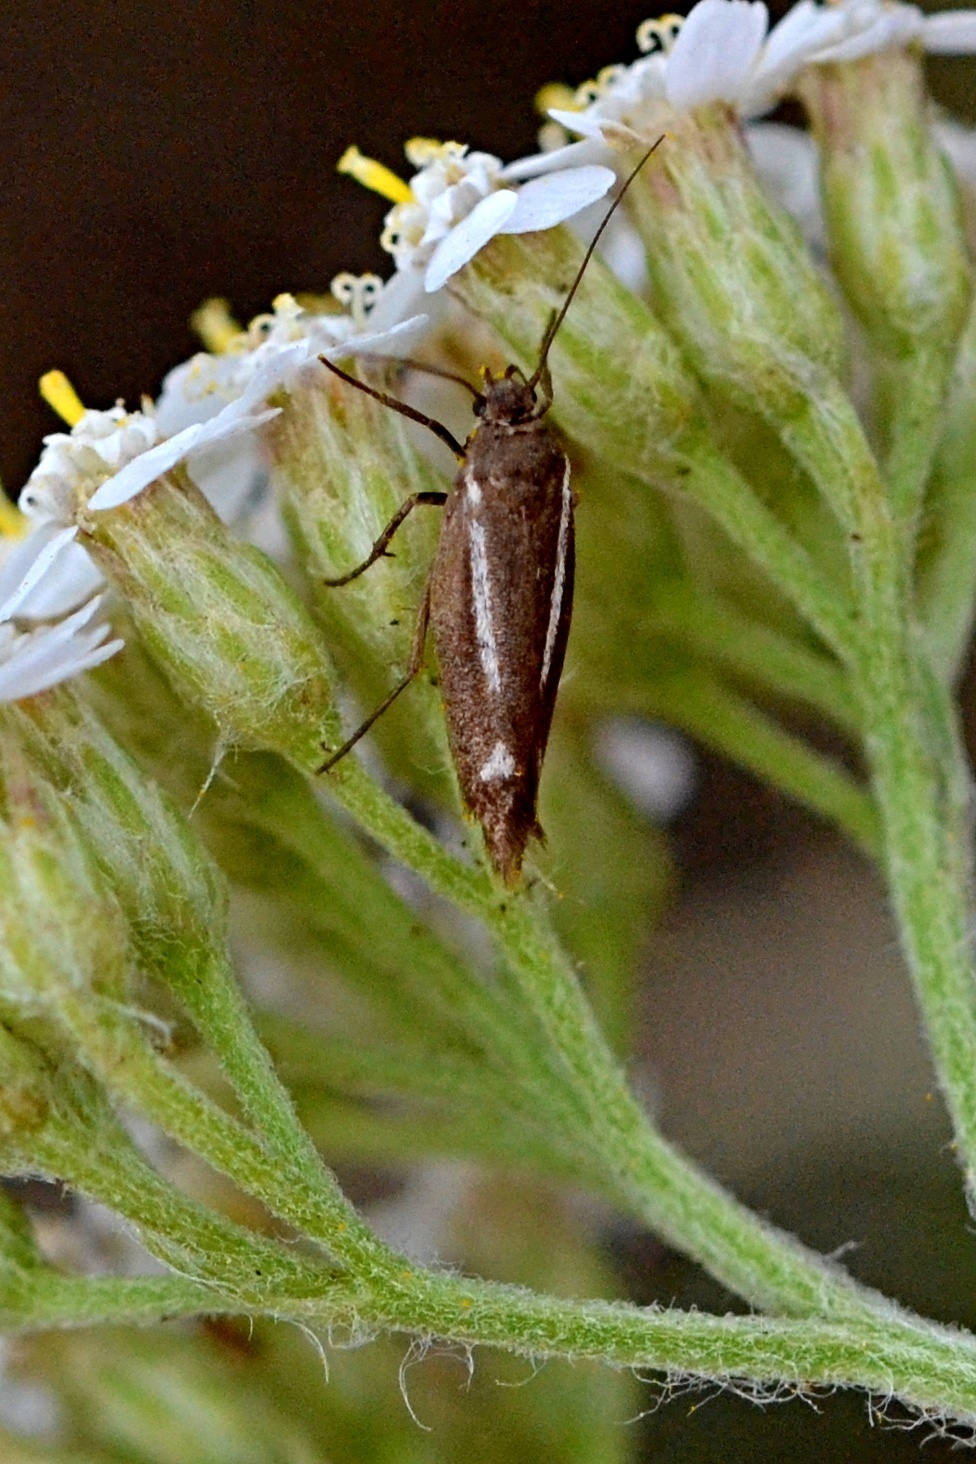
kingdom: Animalia
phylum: Arthropoda
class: Insecta
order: Lepidoptera
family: Scythrididae
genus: Scythris
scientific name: Scythris knochella
